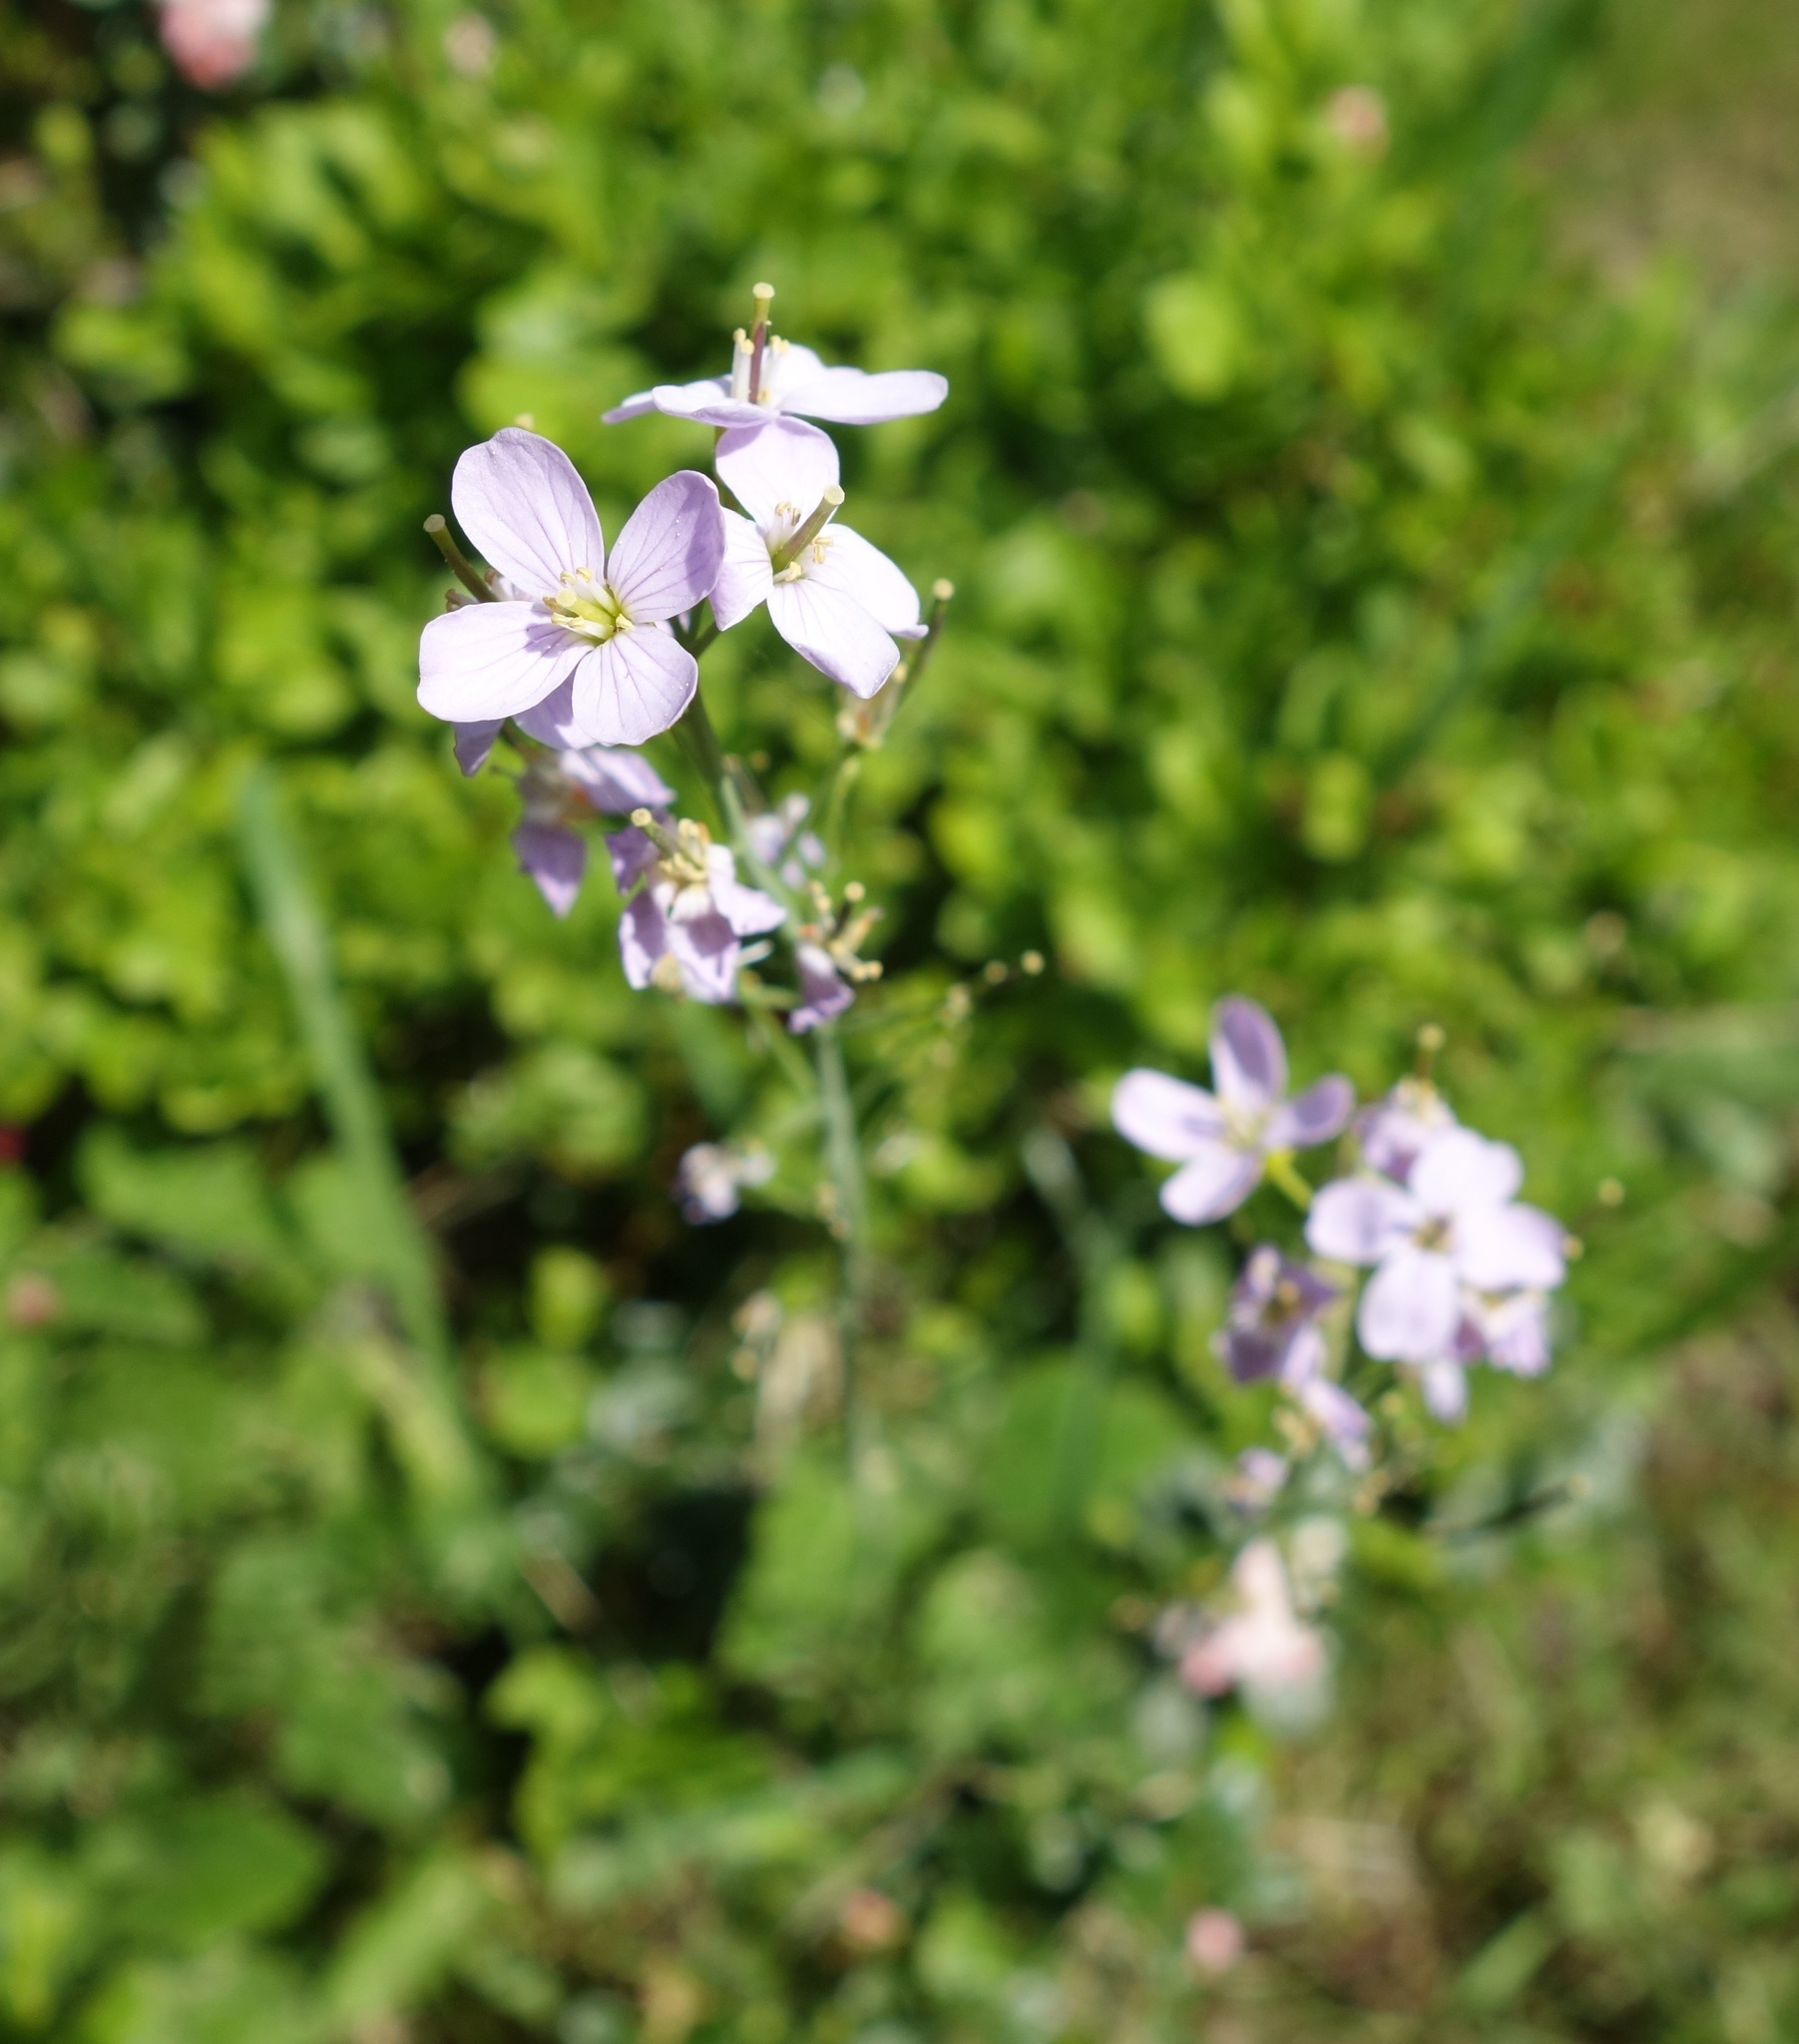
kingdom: Plantae
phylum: Tracheophyta
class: Magnoliopsida
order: Brassicales
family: Brassicaceae
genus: Cardamine
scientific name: Cardamine pratensis
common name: Cuckoo flower
